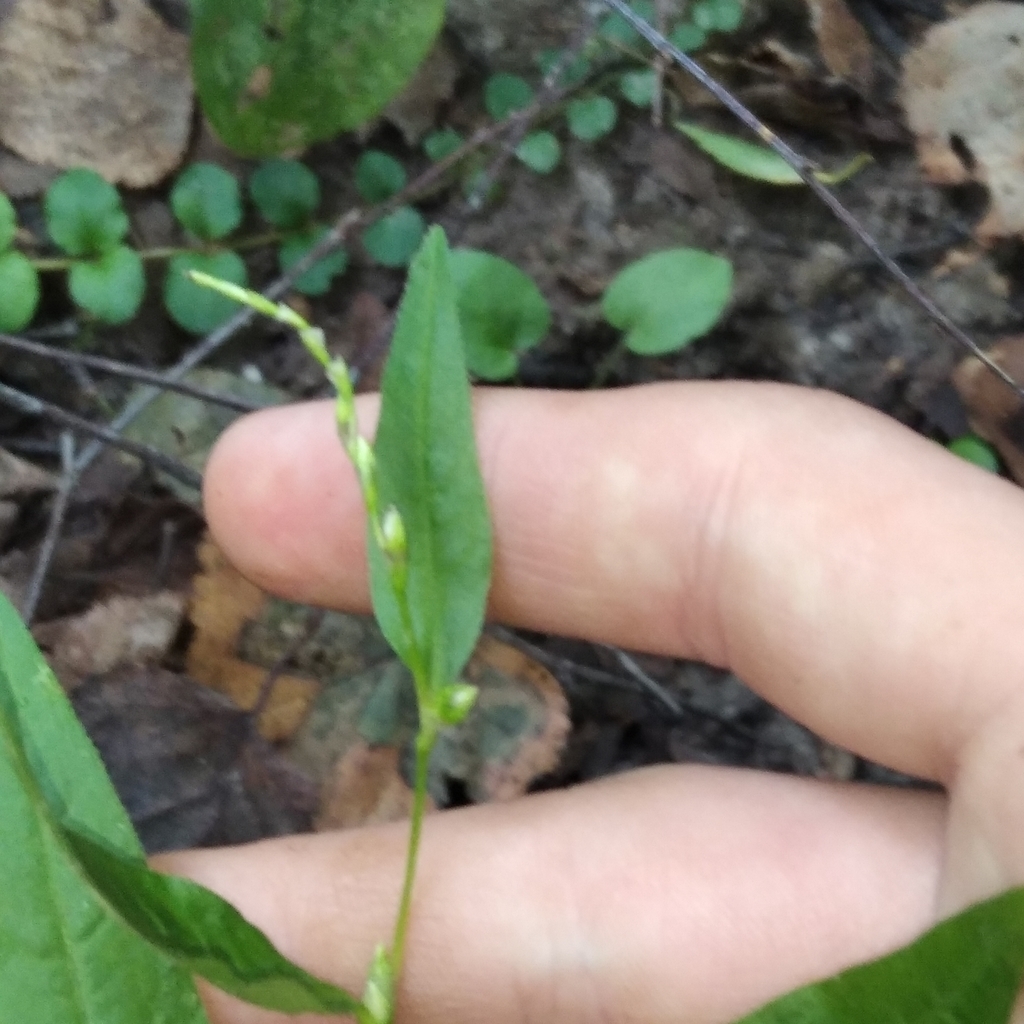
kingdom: Plantae
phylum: Tracheophyta
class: Magnoliopsida
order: Caryophyllales
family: Polygonaceae
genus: Persicaria
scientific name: Persicaria hydropiper
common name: Water-pepper
